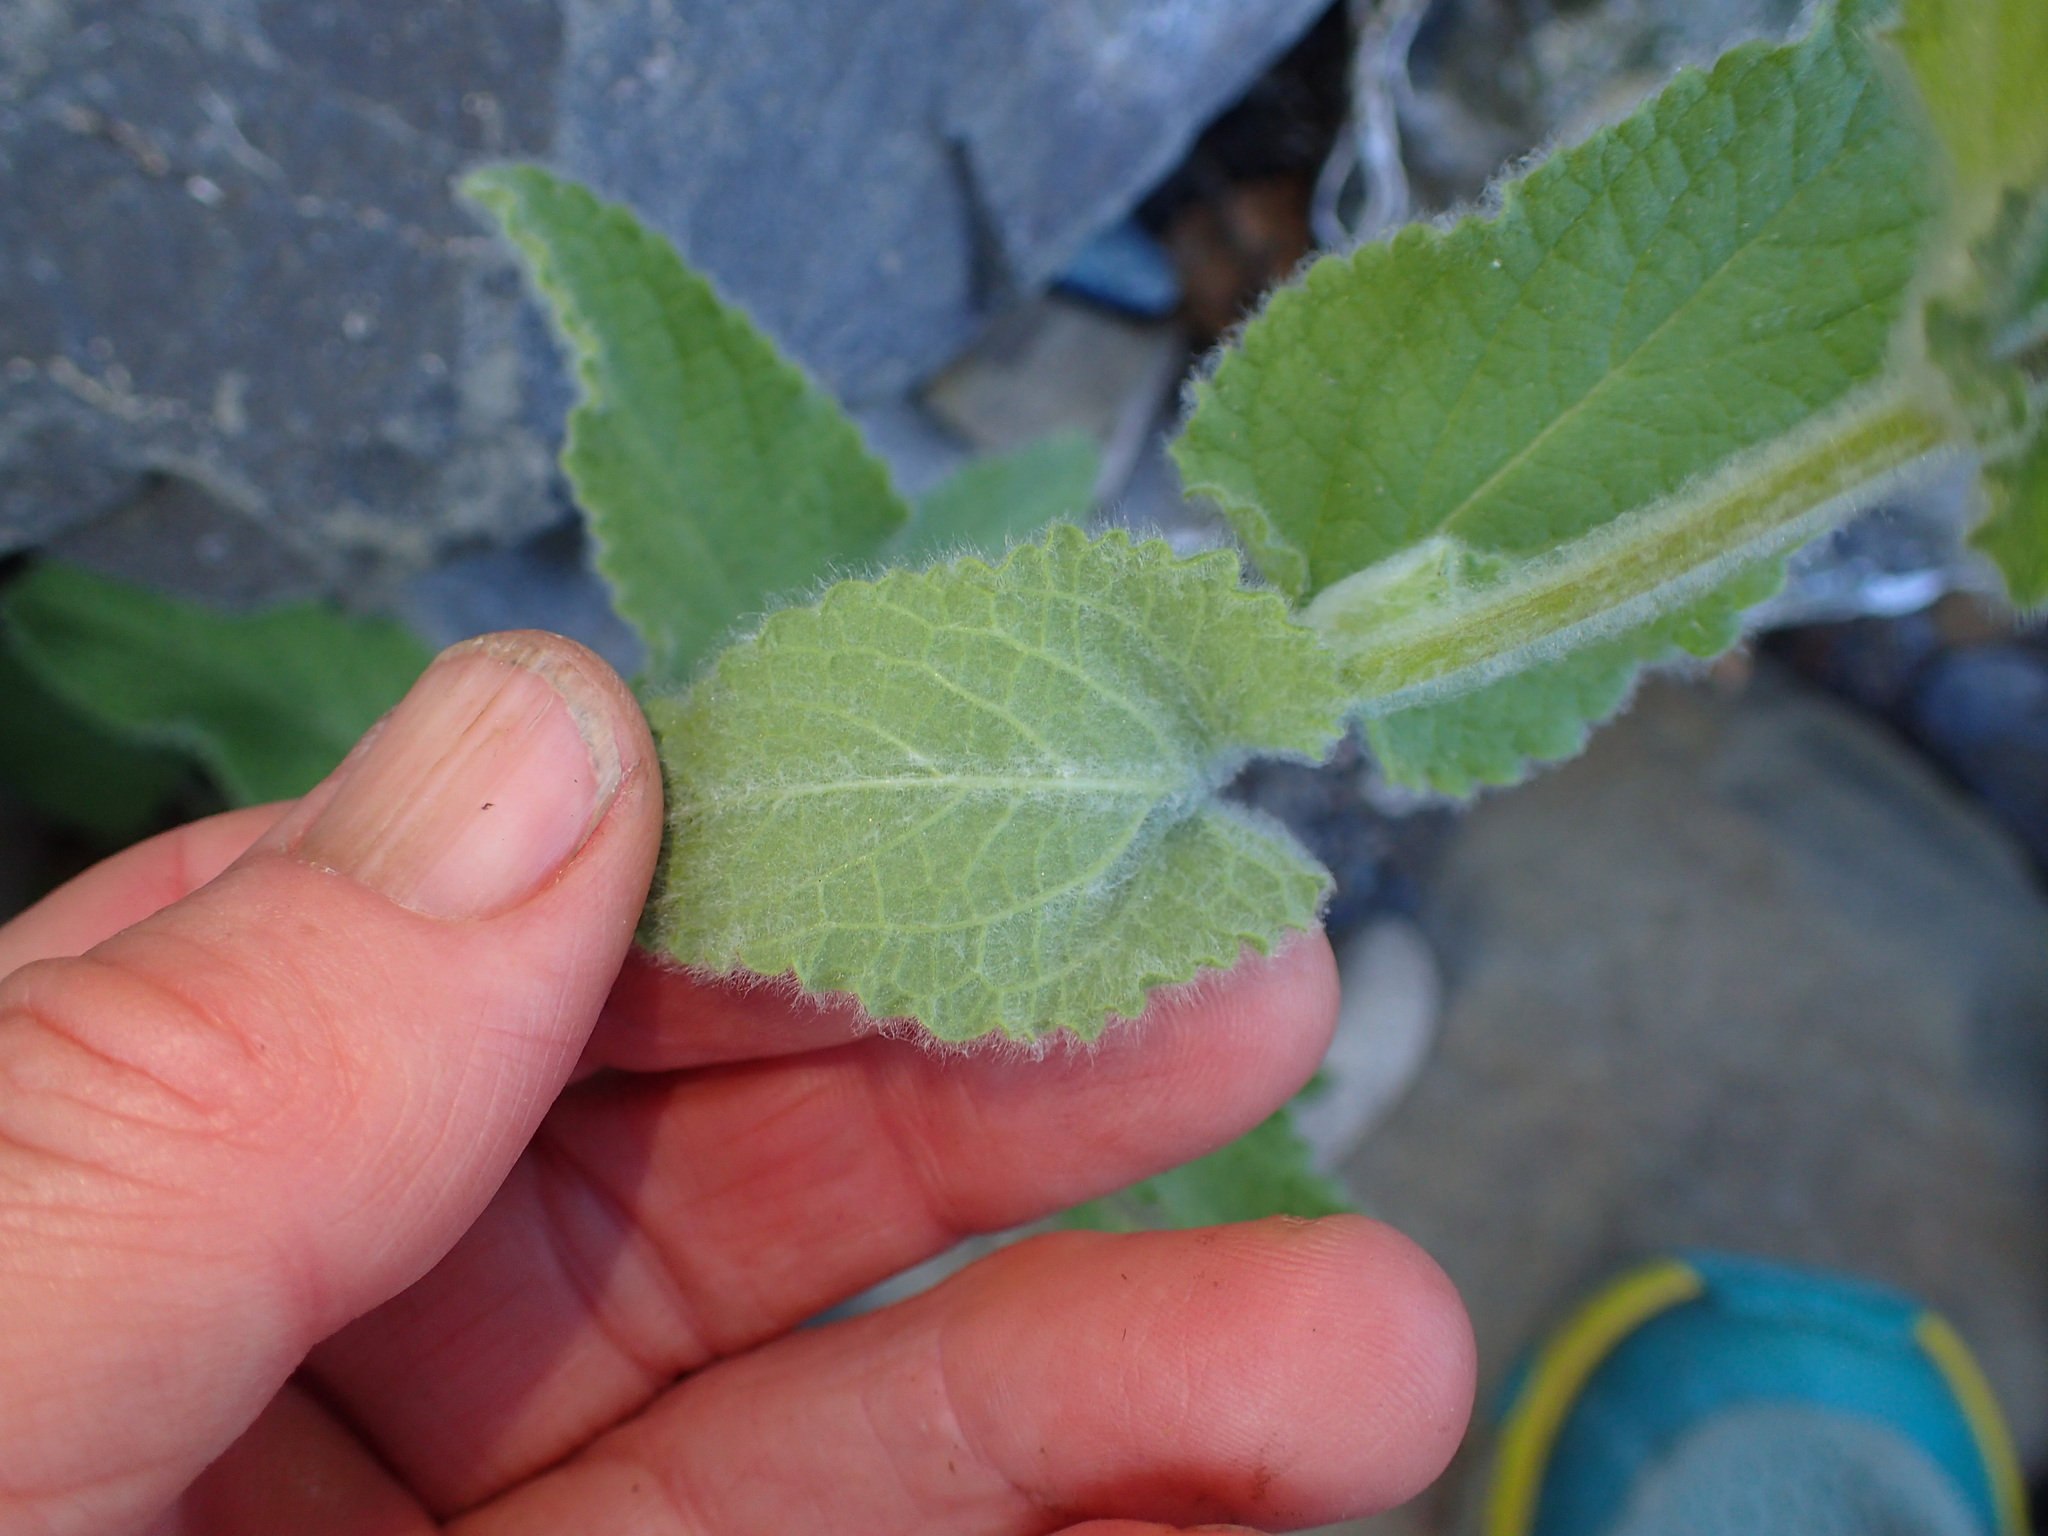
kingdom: Plantae
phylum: Tracheophyta
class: Magnoliopsida
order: Lamiales
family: Lamiaceae
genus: Stachys
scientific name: Stachys albens
